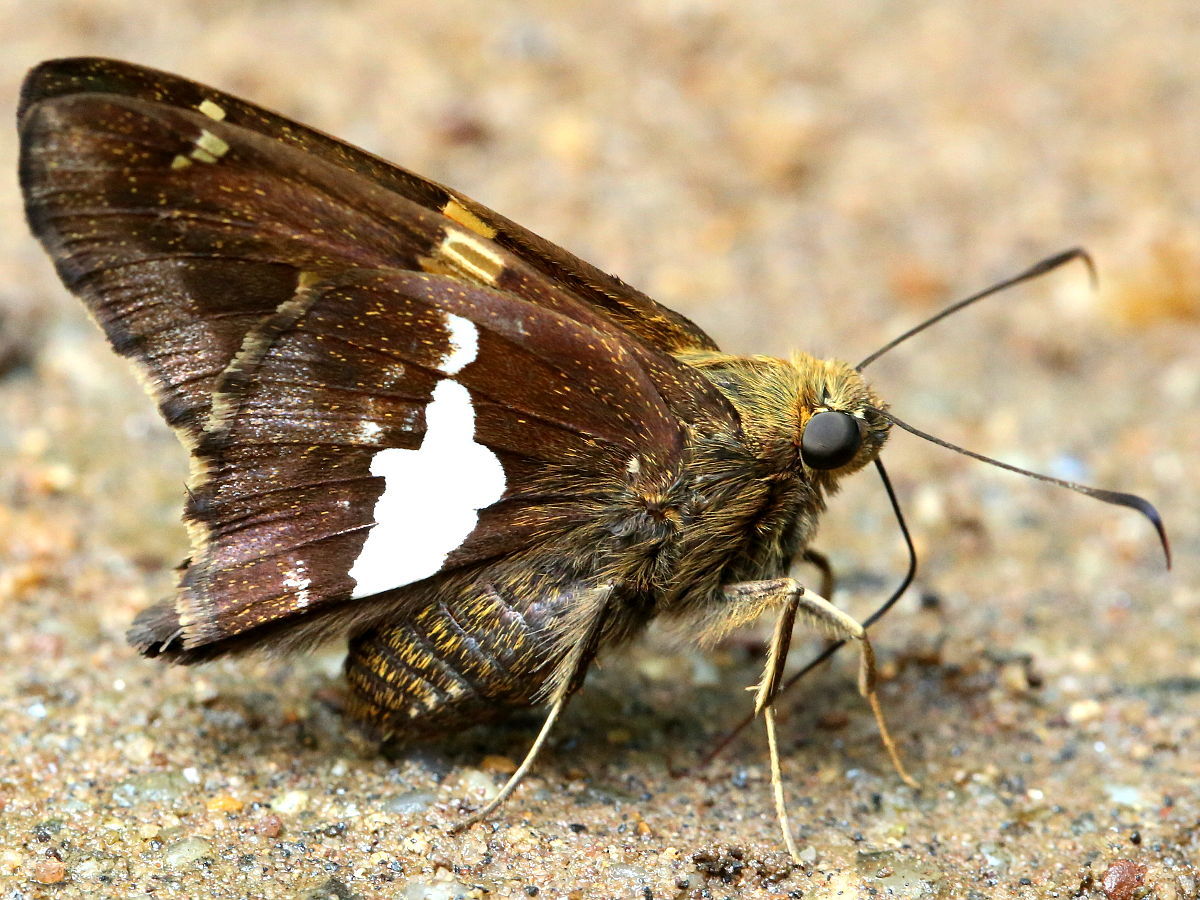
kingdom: Animalia
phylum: Arthropoda
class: Insecta
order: Lepidoptera
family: Hesperiidae
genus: Epargyreus
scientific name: Epargyreus clarus
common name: Silver-spotted skipper
